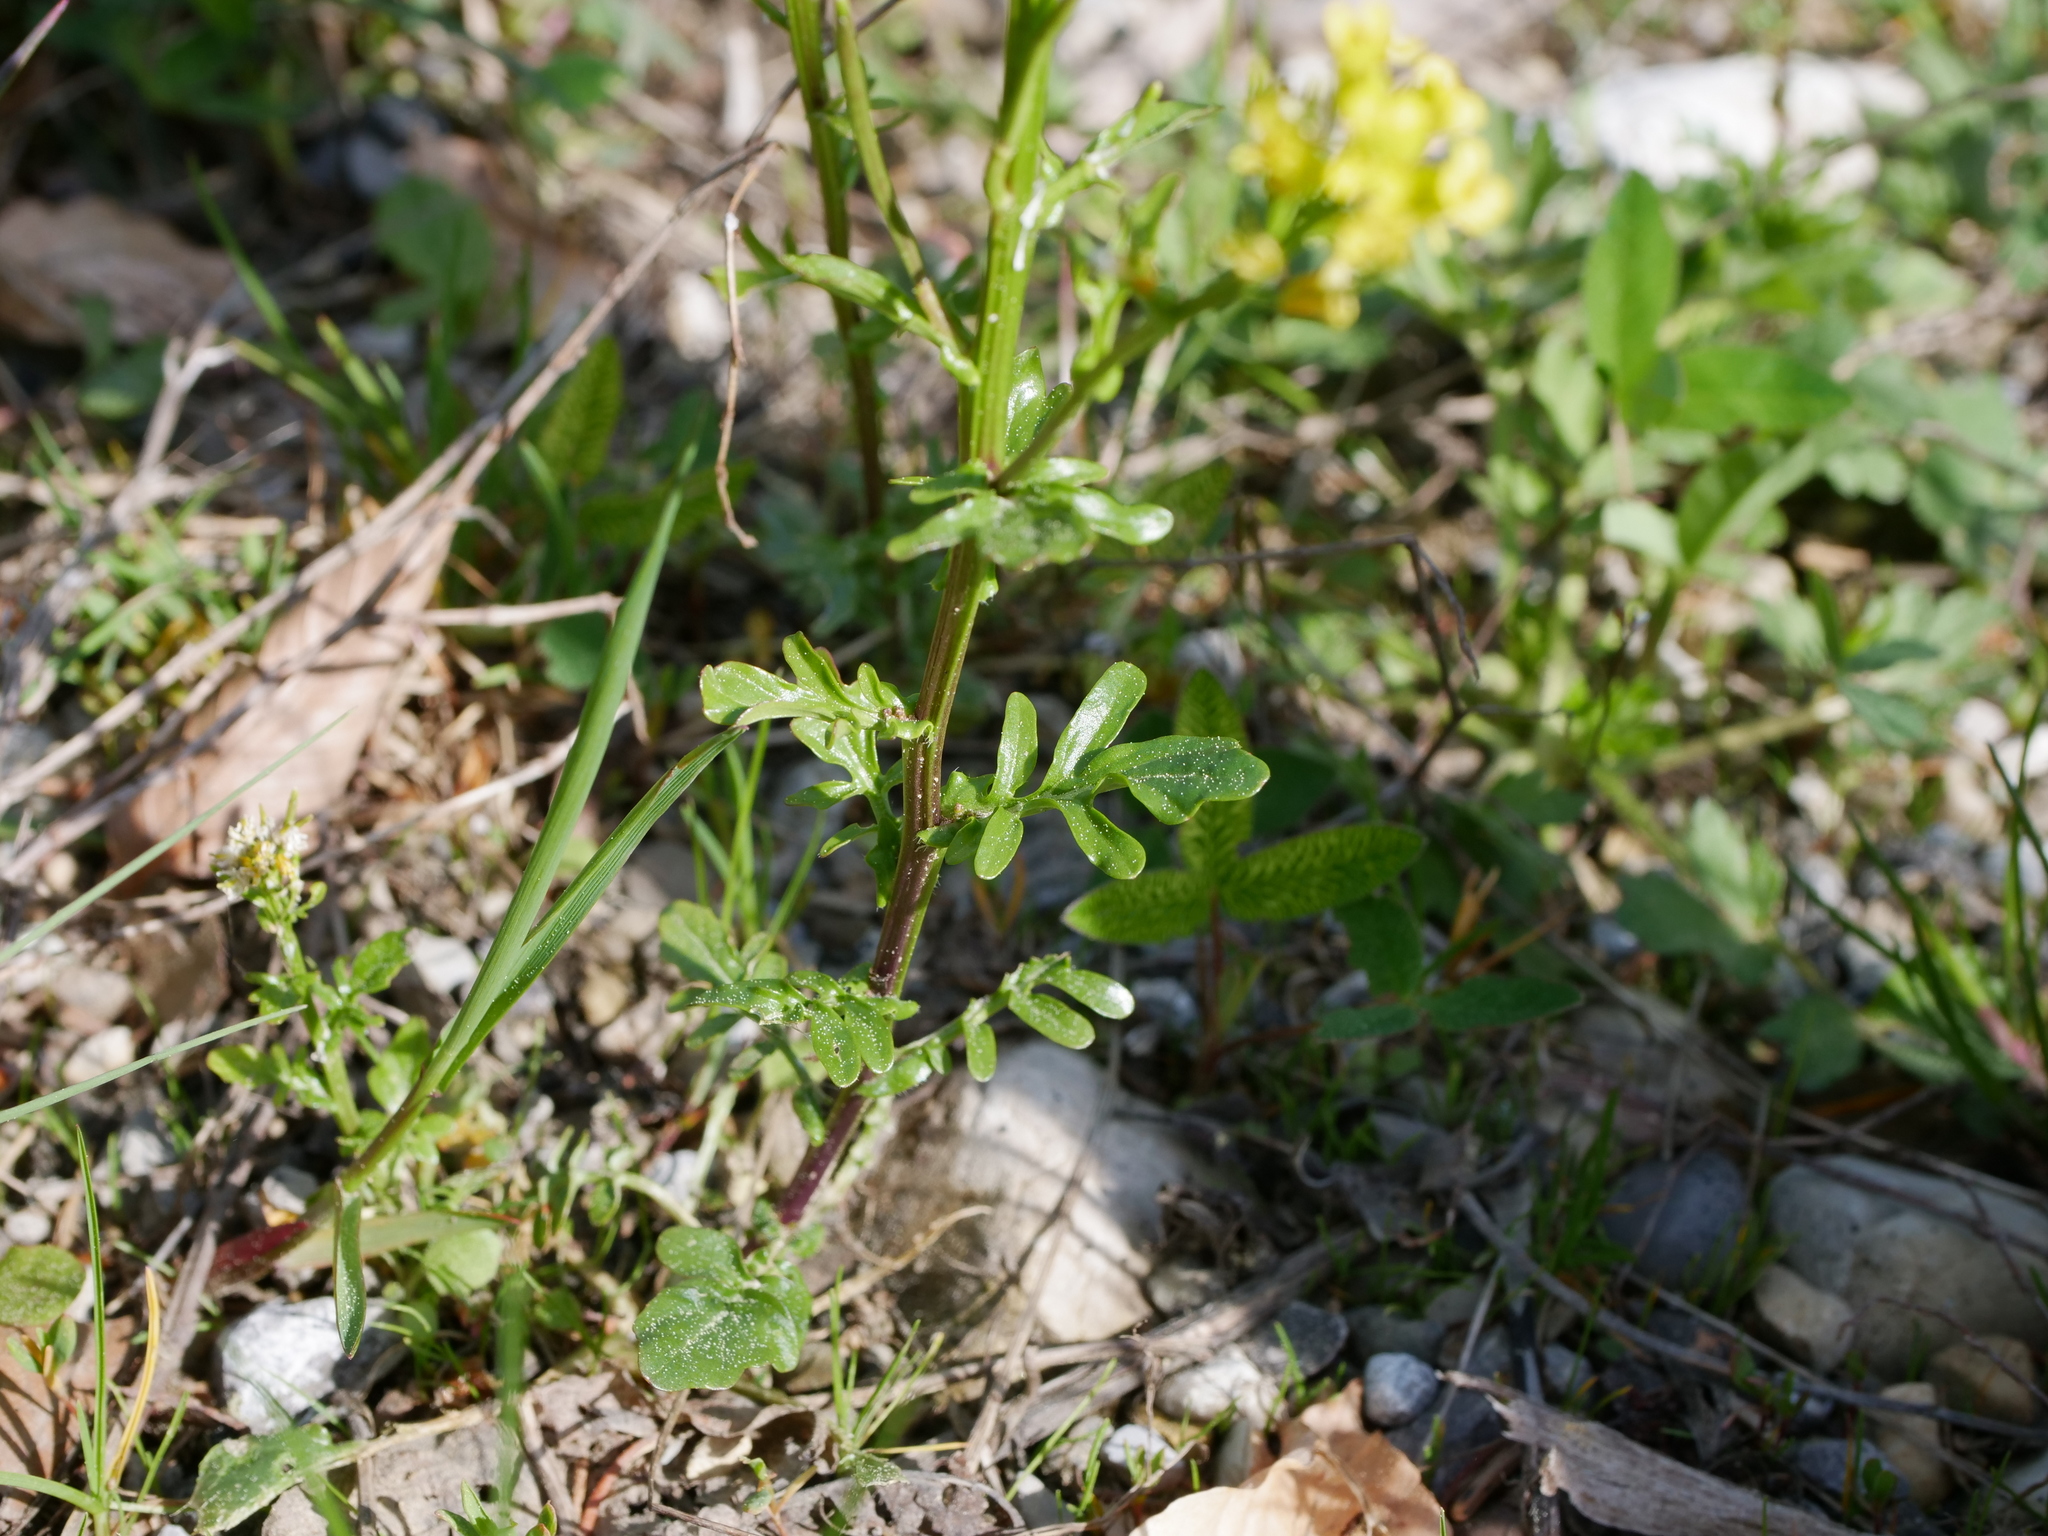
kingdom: Plantae
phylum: Tracheophyta
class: Magnoliopsida
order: Brassicales
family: Brassicaceae
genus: Barbarea
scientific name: Barbarea intermedia
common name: Medium-flowered winter-cress
